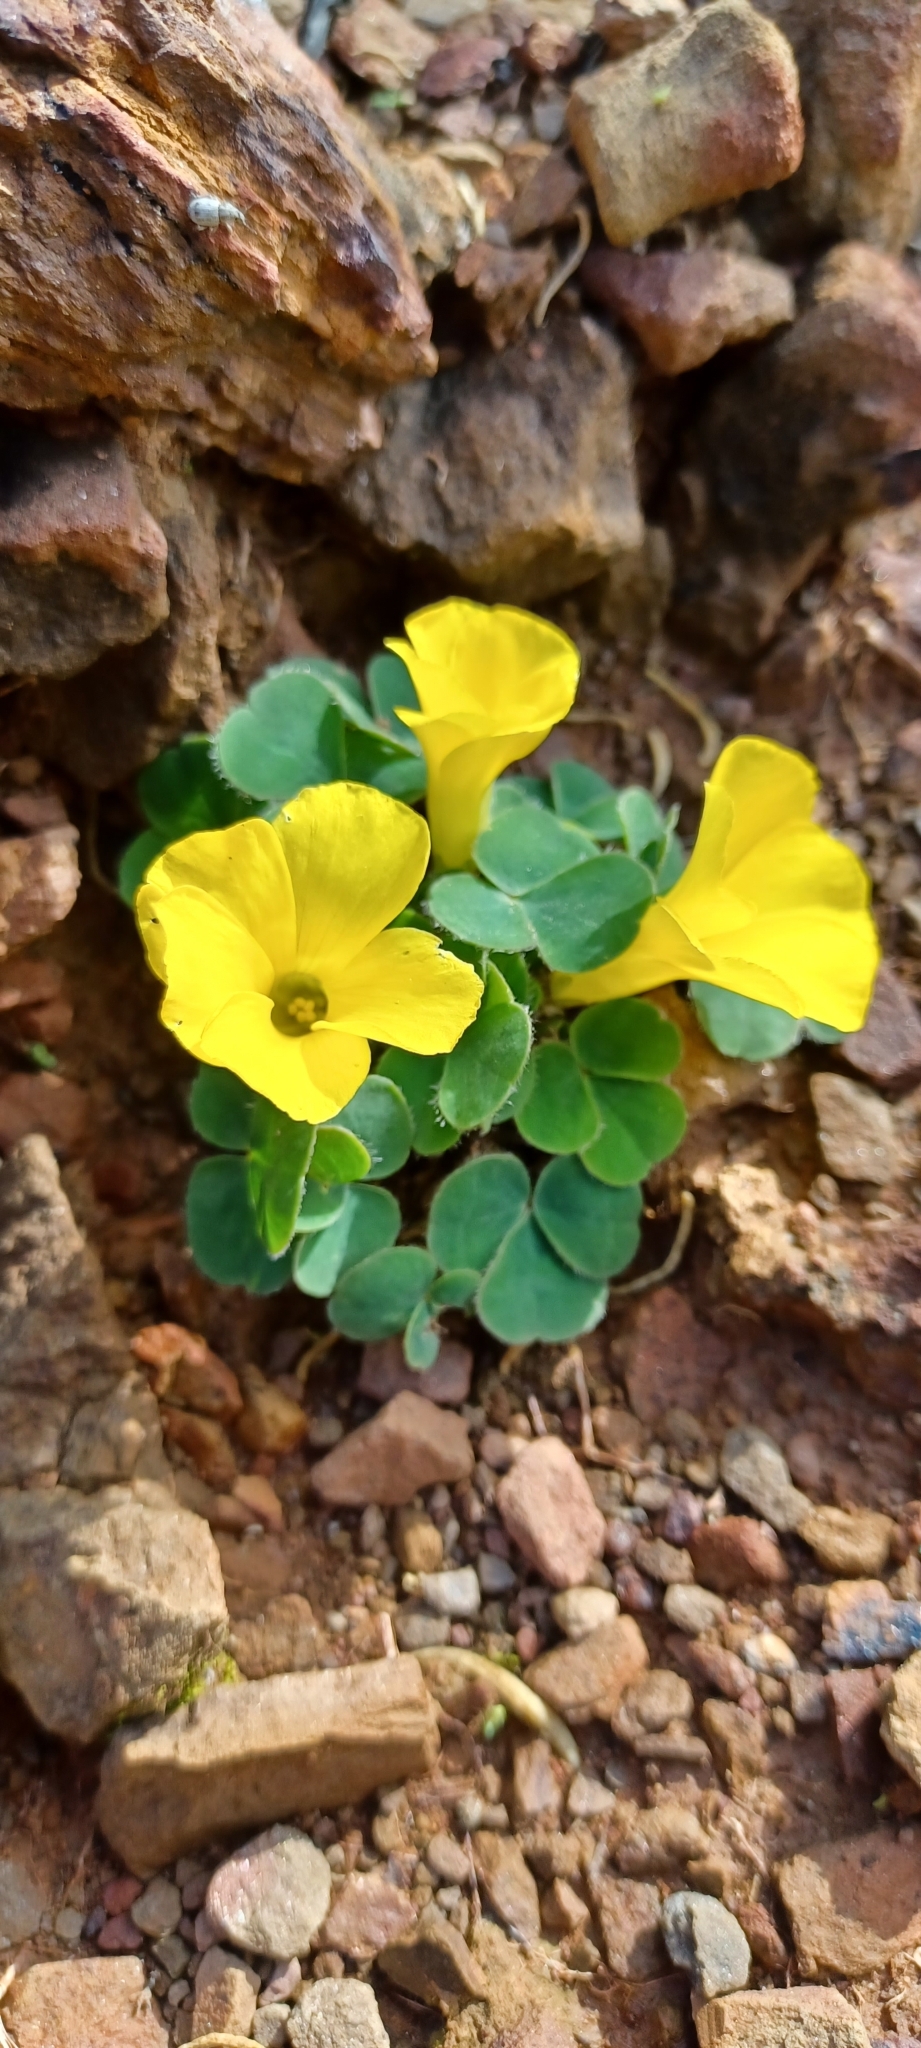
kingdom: Plantae
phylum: Tracheophyta
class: Magnoliopsida
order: Oxalidales
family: Oxalidaceae
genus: Oxalis
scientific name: Oxalis purpurea
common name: Purple woodsorrel
